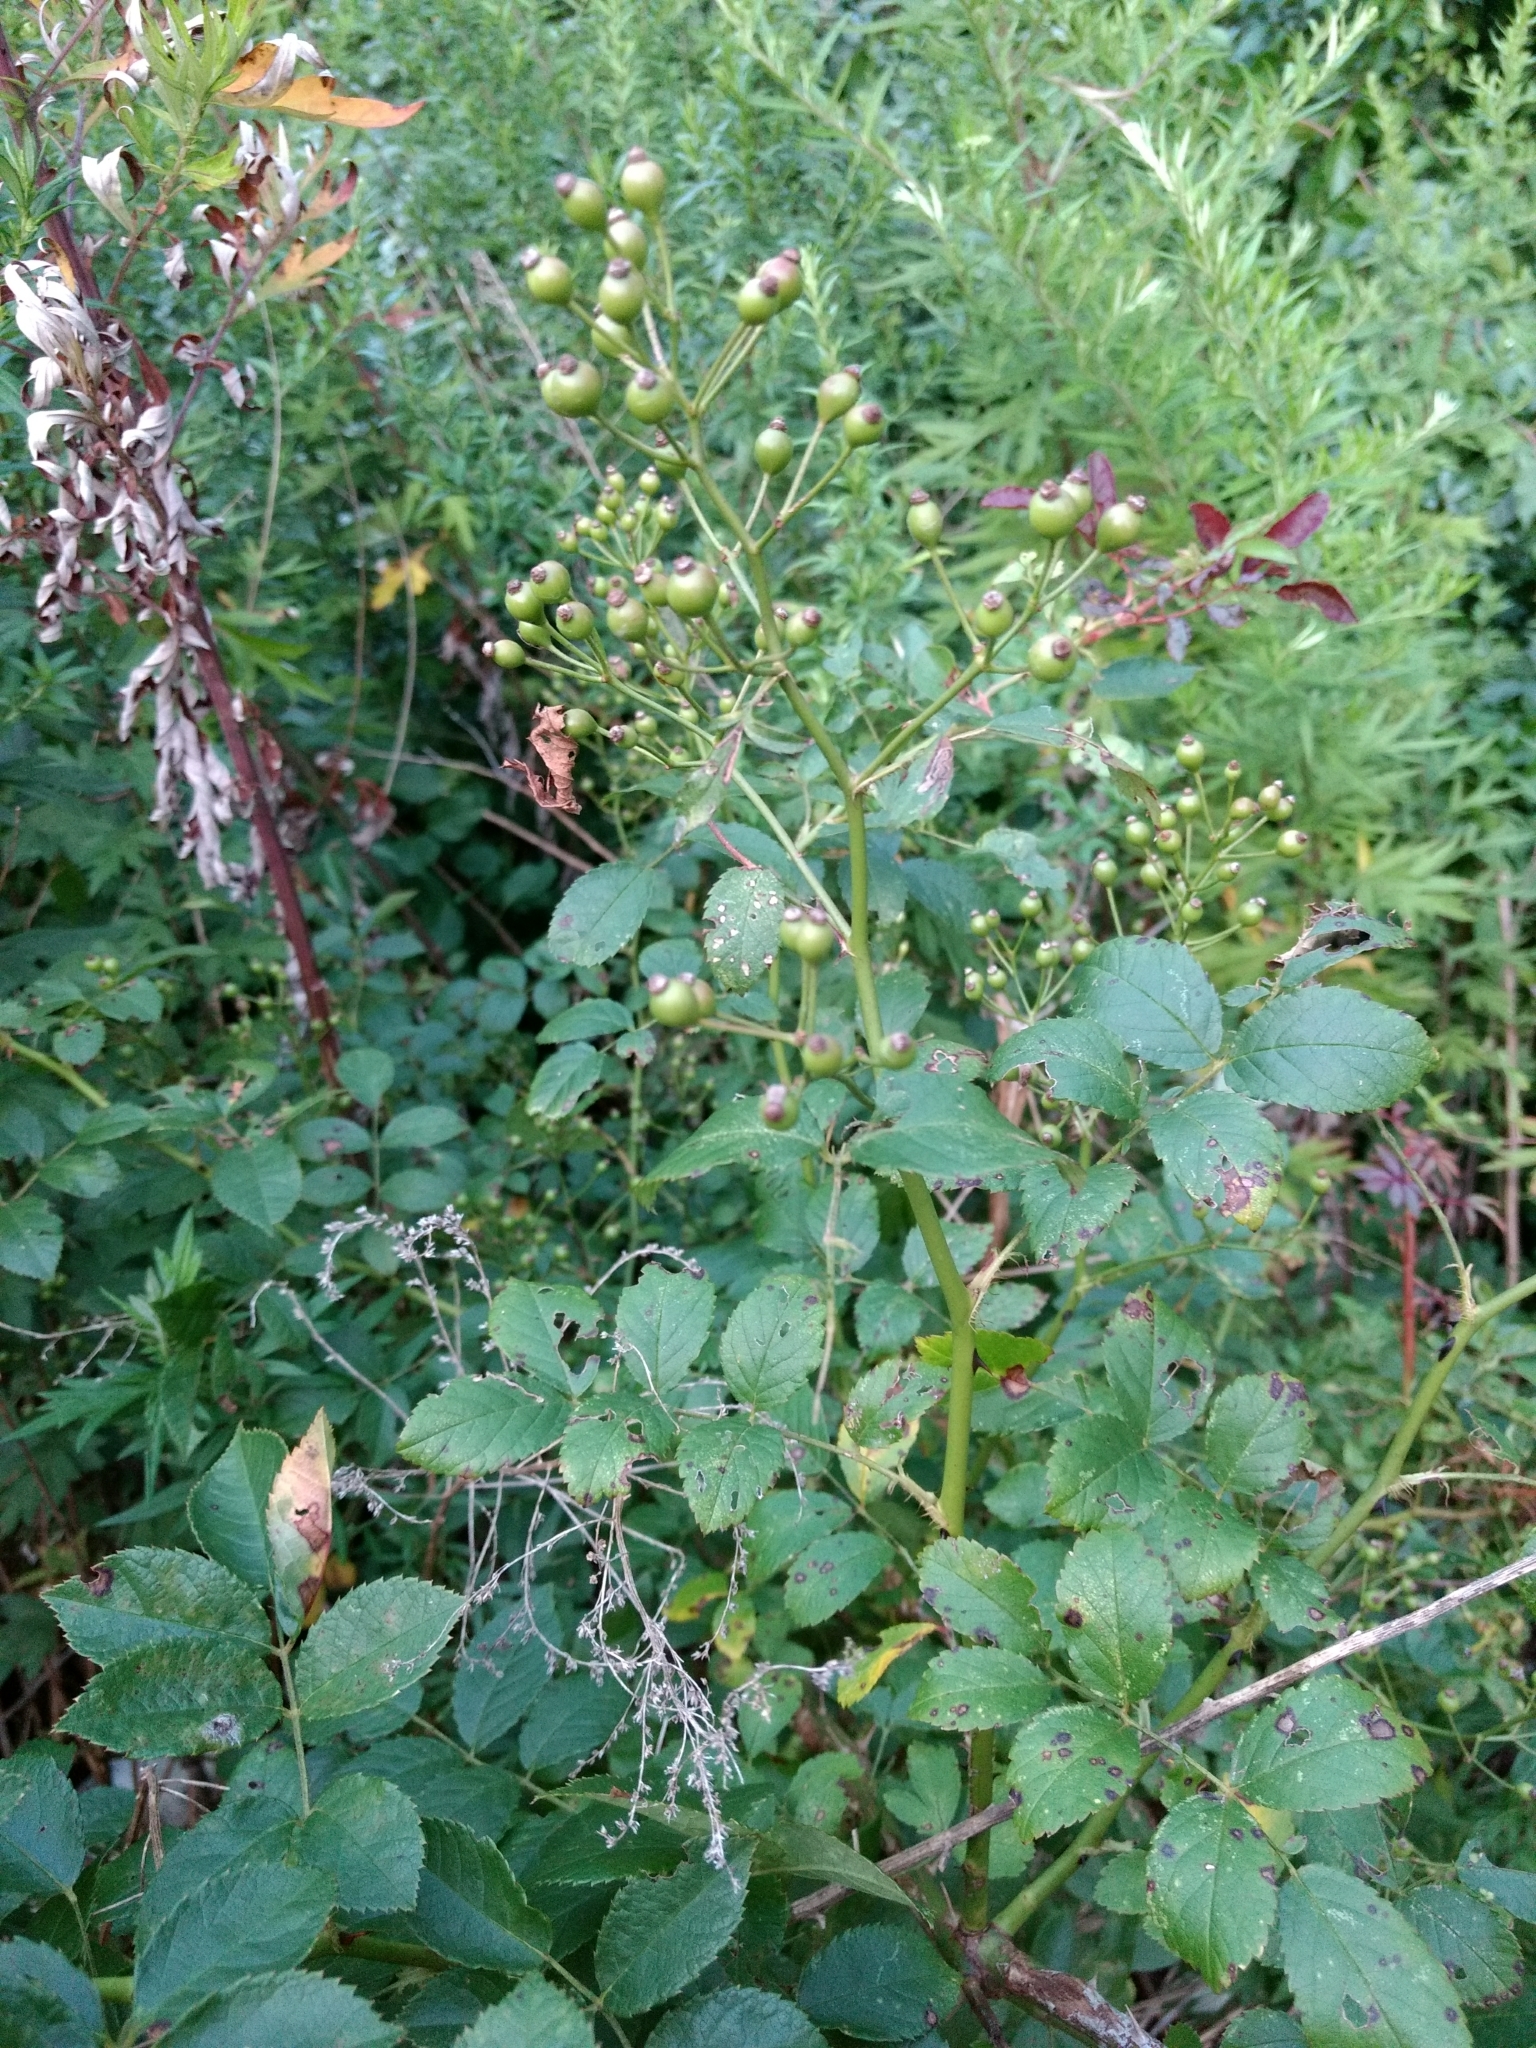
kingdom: Plantae
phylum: Tracheophyta
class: Magnoliopsida
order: Rosales
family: Rosaceae
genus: Rosa
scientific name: Rosa multiflora
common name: Multiflora rose
